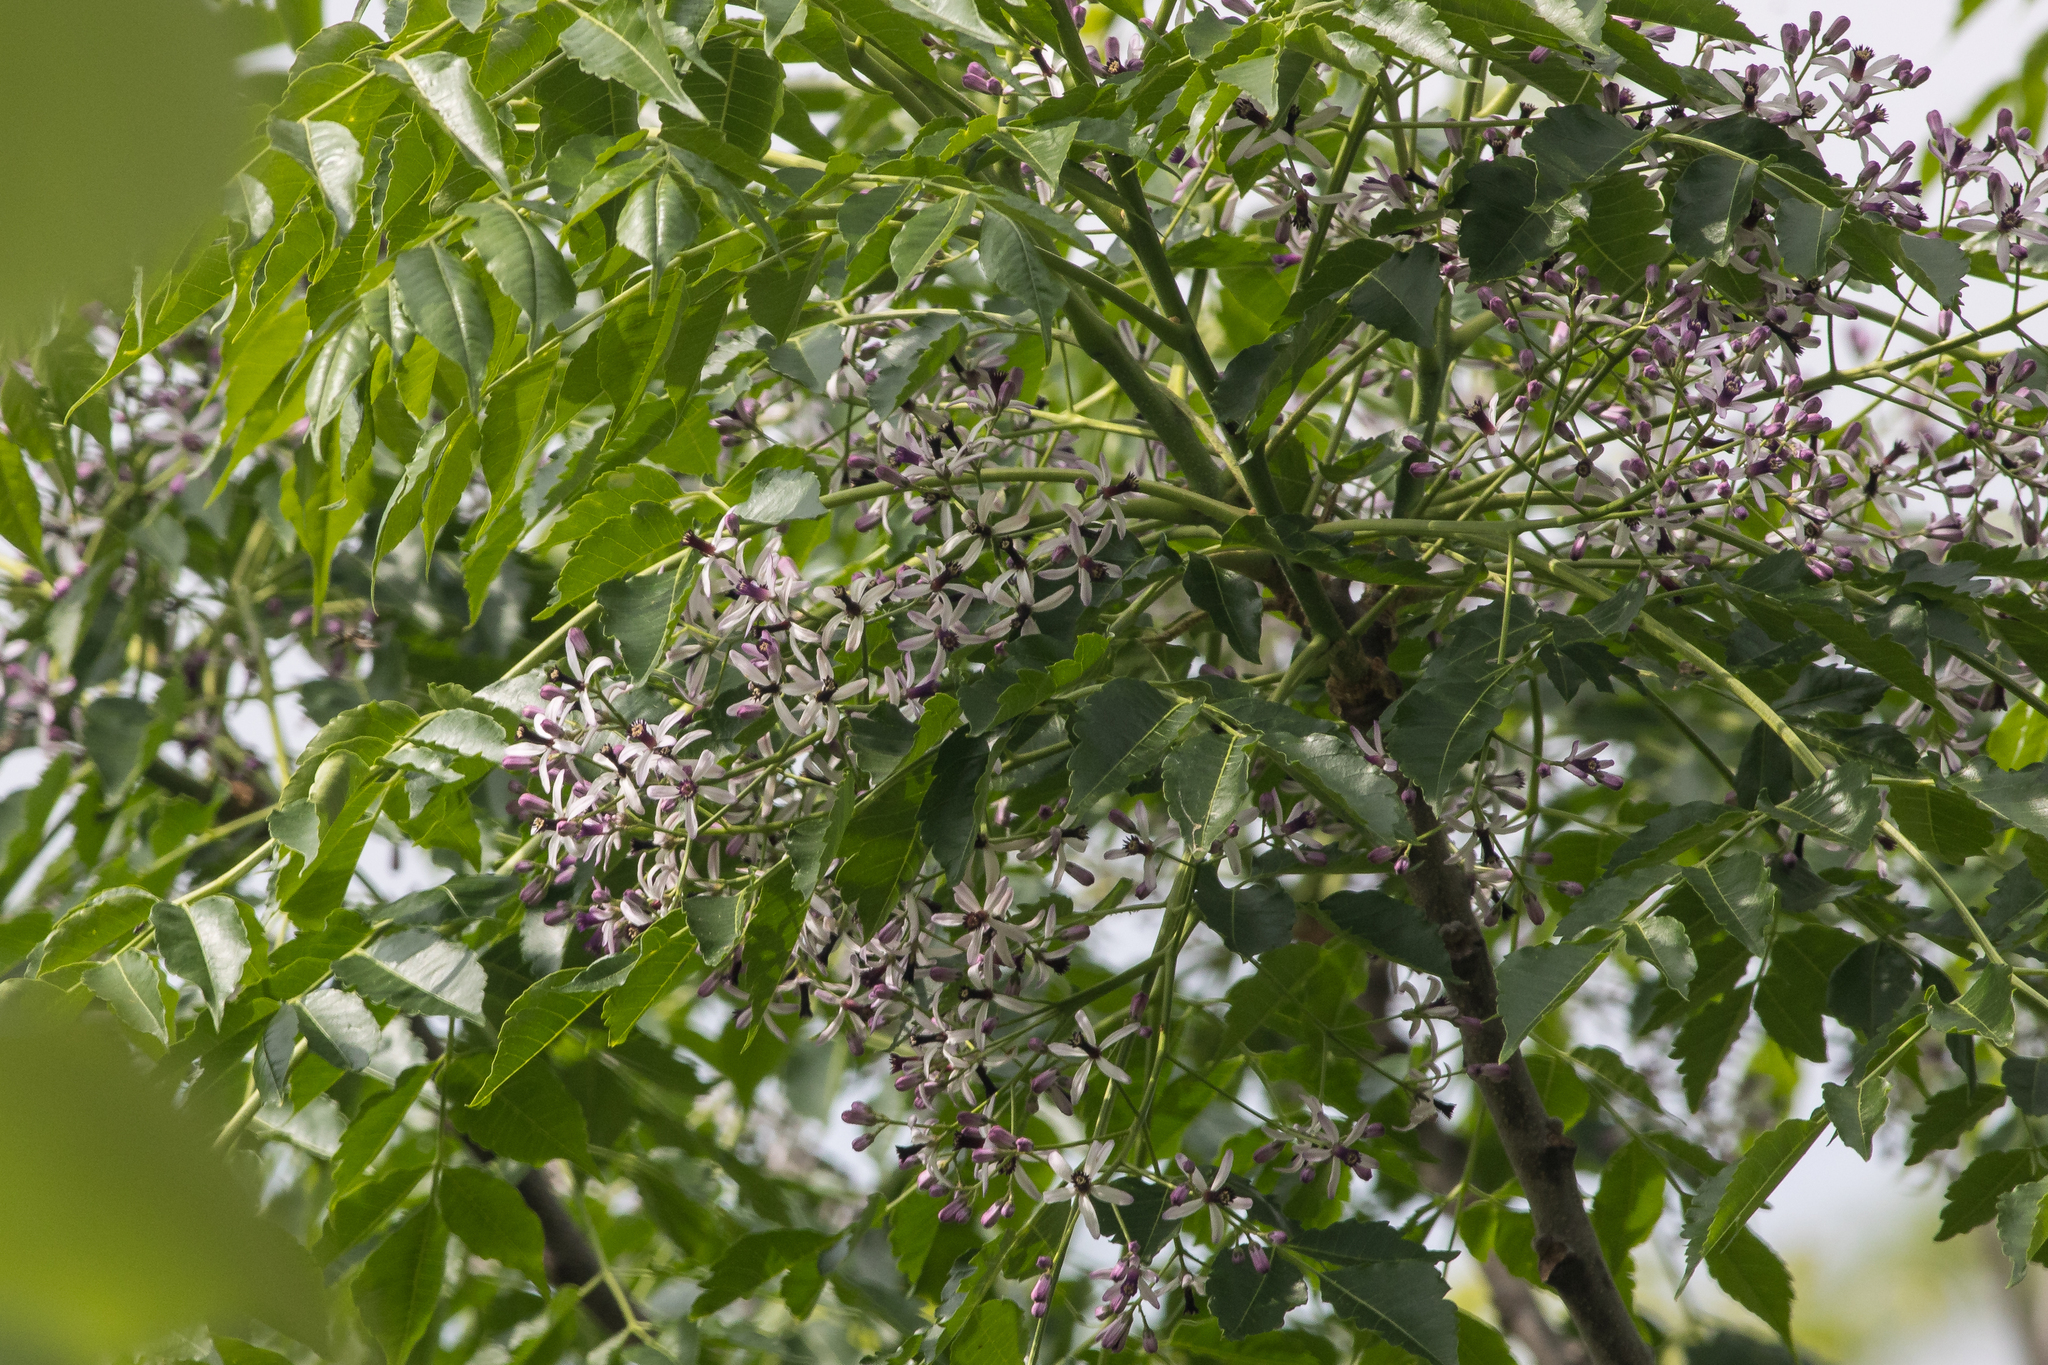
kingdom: Plantae
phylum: Tracheophyta
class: Magnoliopsida
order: Sapindales
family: Meliaceae
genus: Melia
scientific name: Melia azedarach
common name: Chinaberrytree
